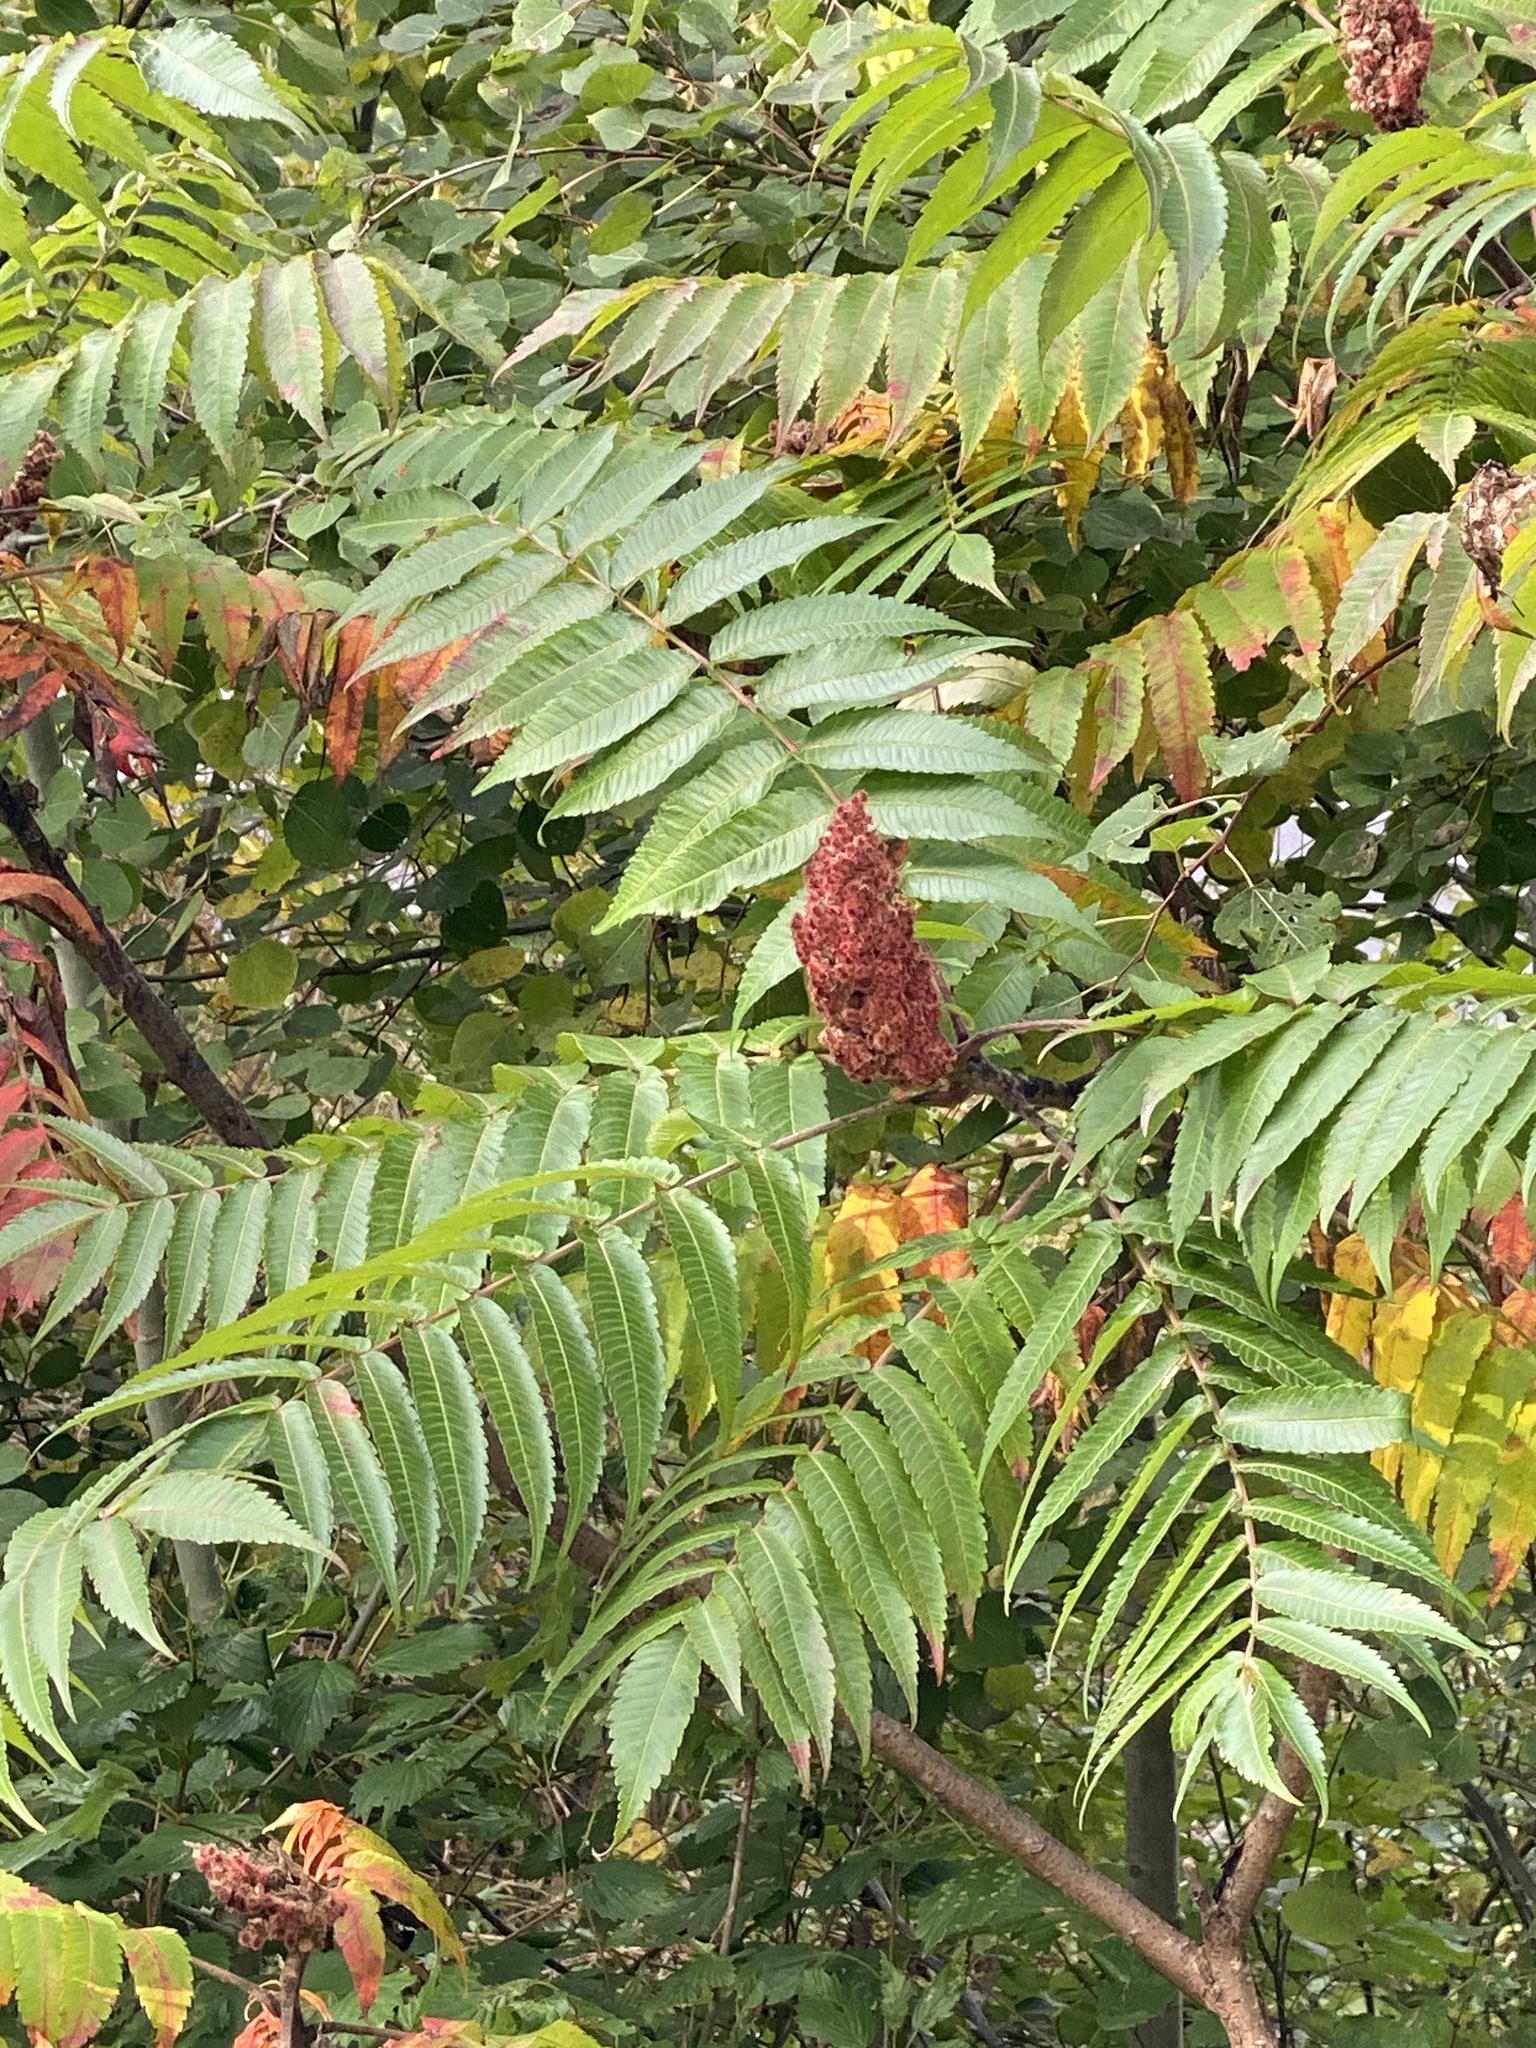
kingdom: Plantae
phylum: Tracheophyta
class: Magnoliopsida
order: Sapindales
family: Anacardiaceae
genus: Rhus
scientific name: Rhus typhina
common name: Staghorn sumac
